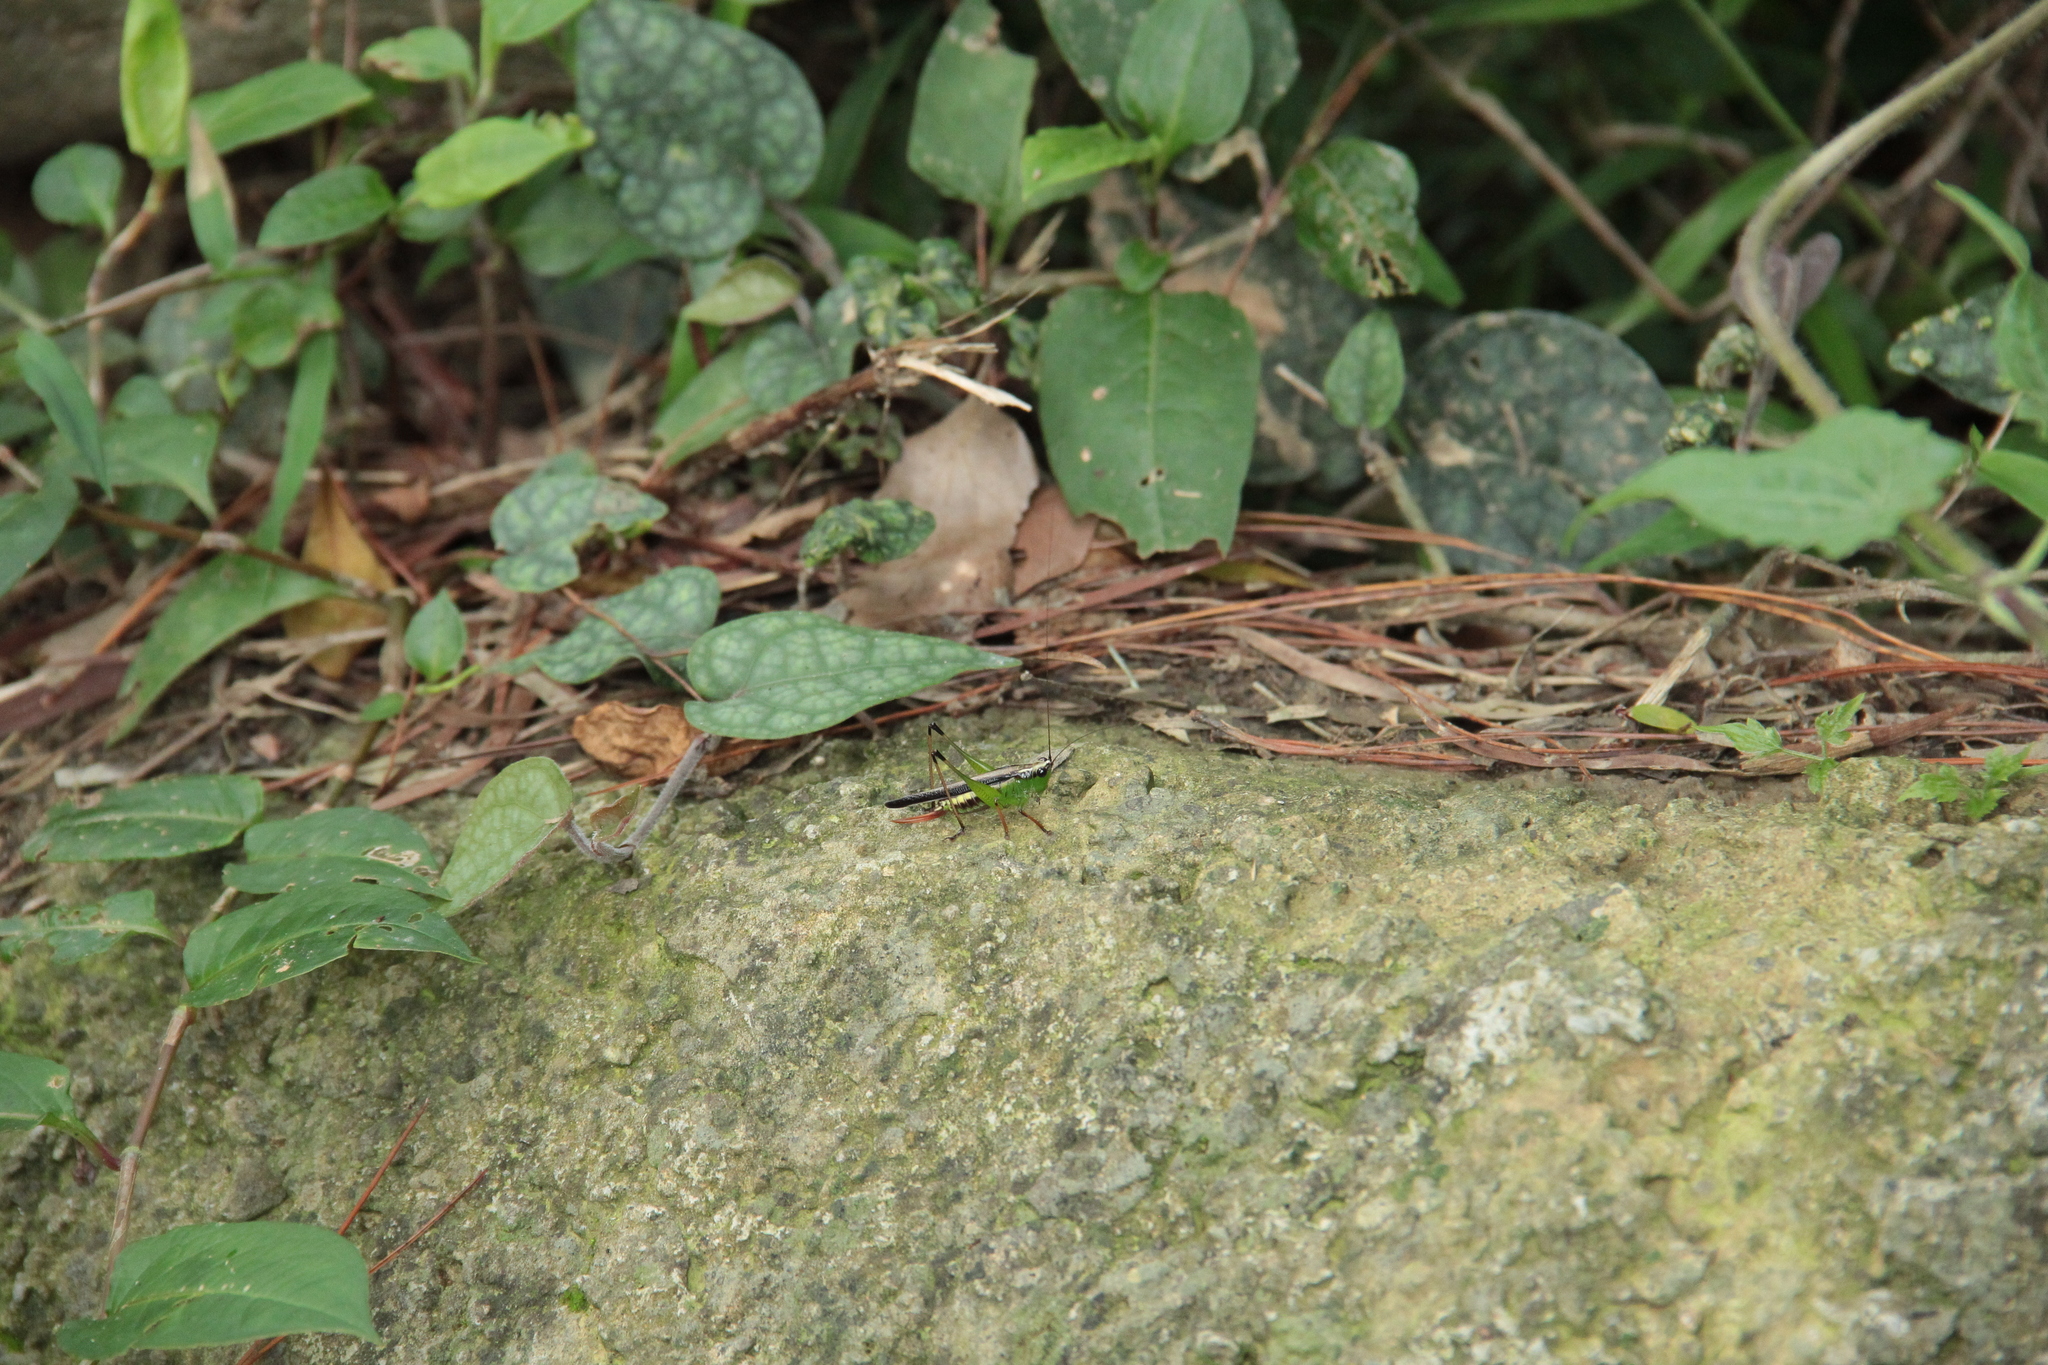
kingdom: Animalia
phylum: Arthropoda
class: Insecta
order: Orthoptera
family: Tettigoniidae
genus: Conocephalus
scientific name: Conocephalus melaenus
